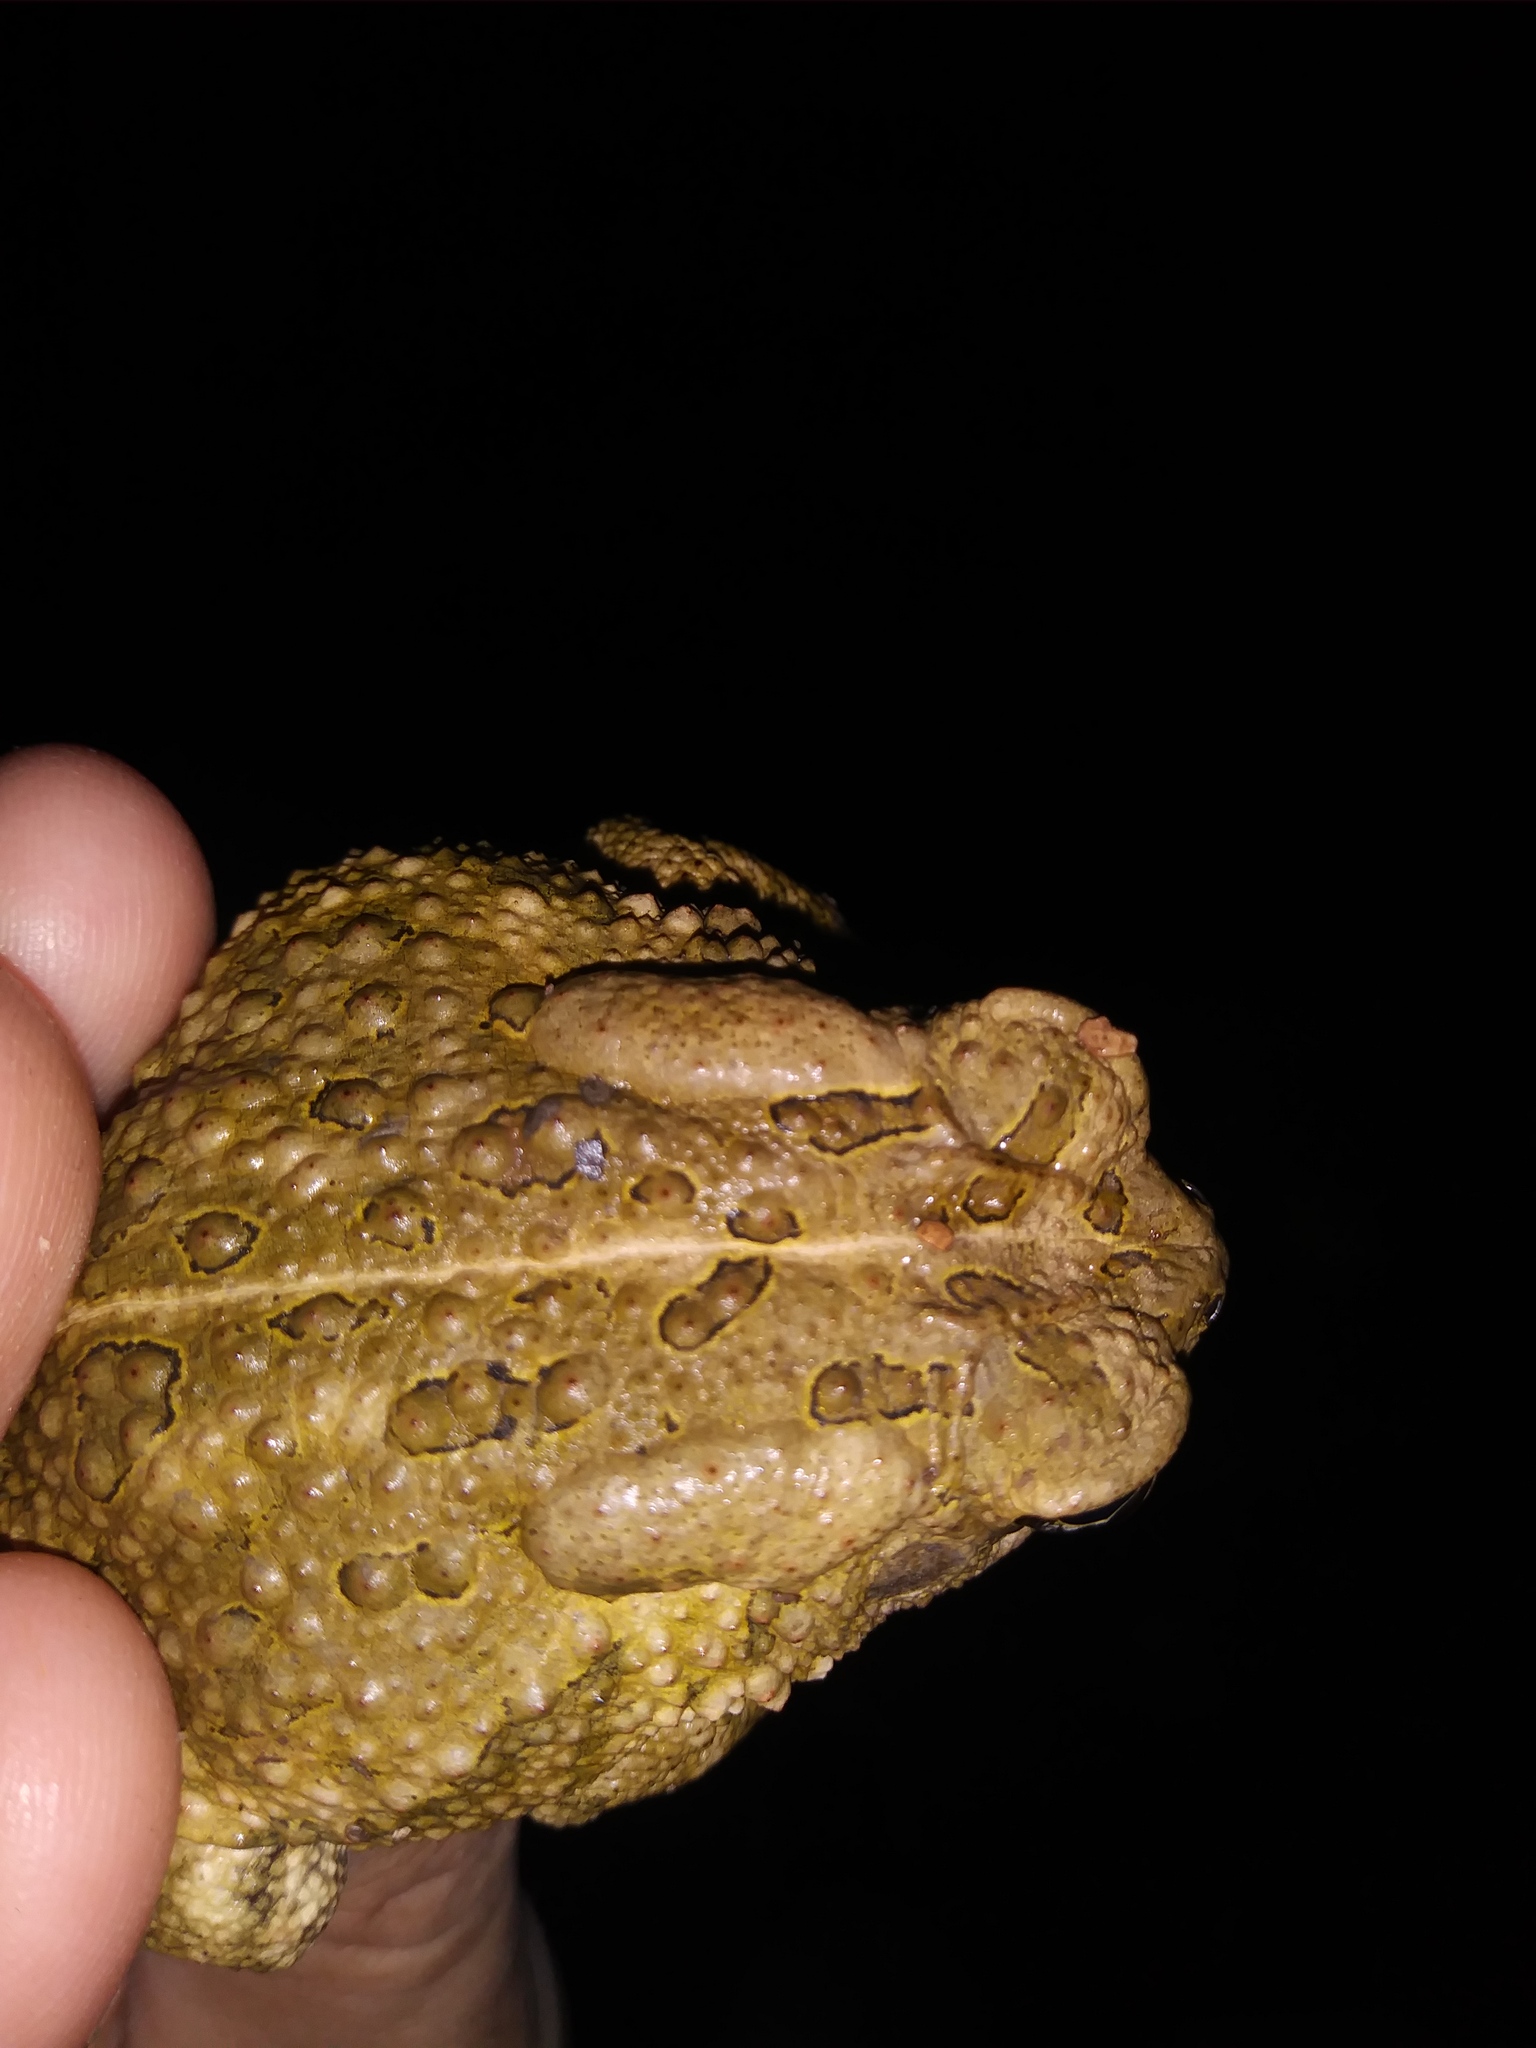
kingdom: Animalia
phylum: Chordata
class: Amphibia
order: Anura
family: Bufonidae
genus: Anaxyrus
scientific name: Anaxyrus fowleri
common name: Fowler's toad
